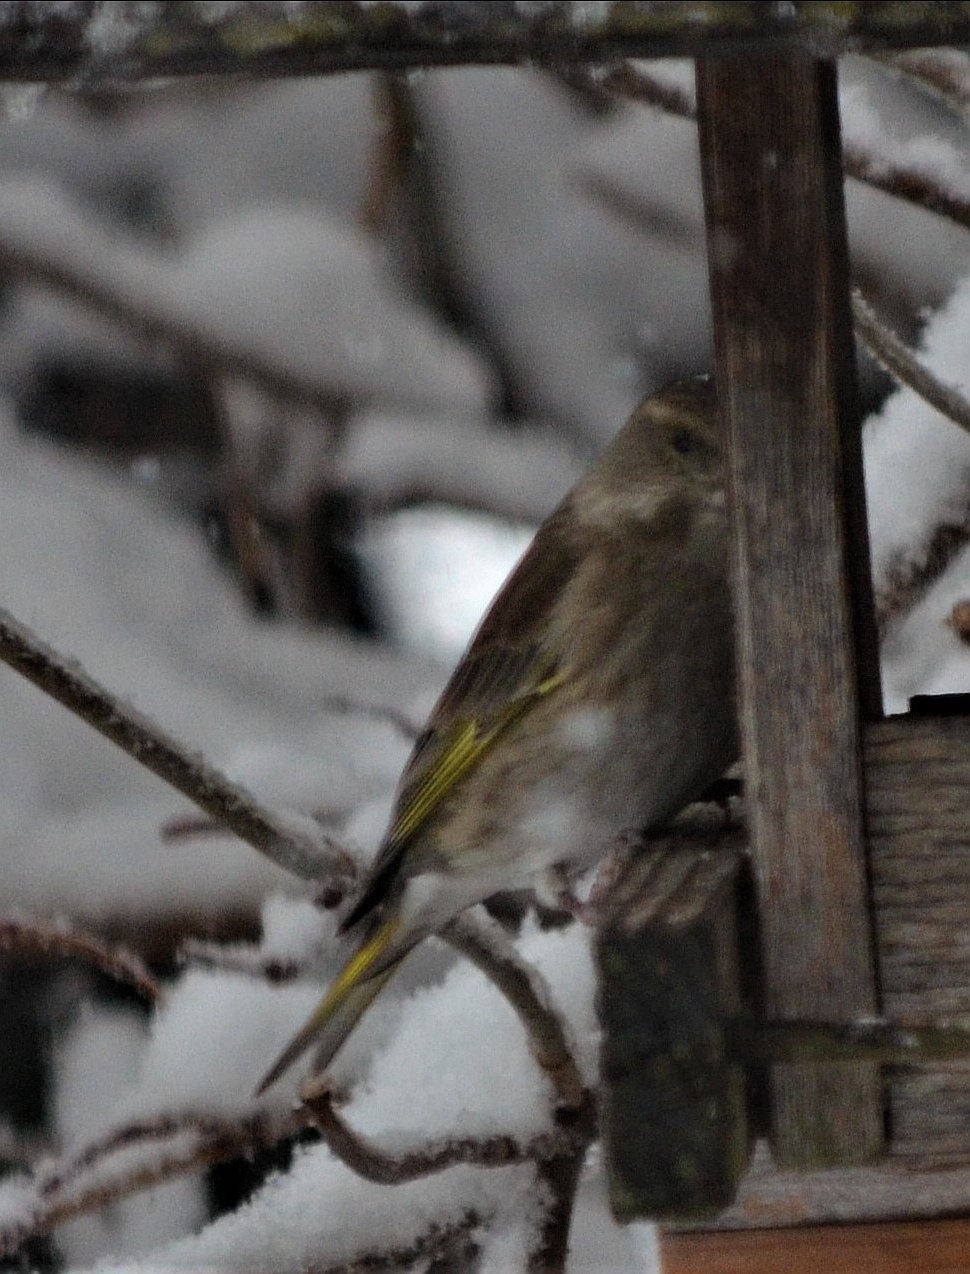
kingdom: Plantae
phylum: Tracheophyta
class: Liliopsida
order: Poales
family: Poaceae
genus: Chloris
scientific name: Chloris chloris
